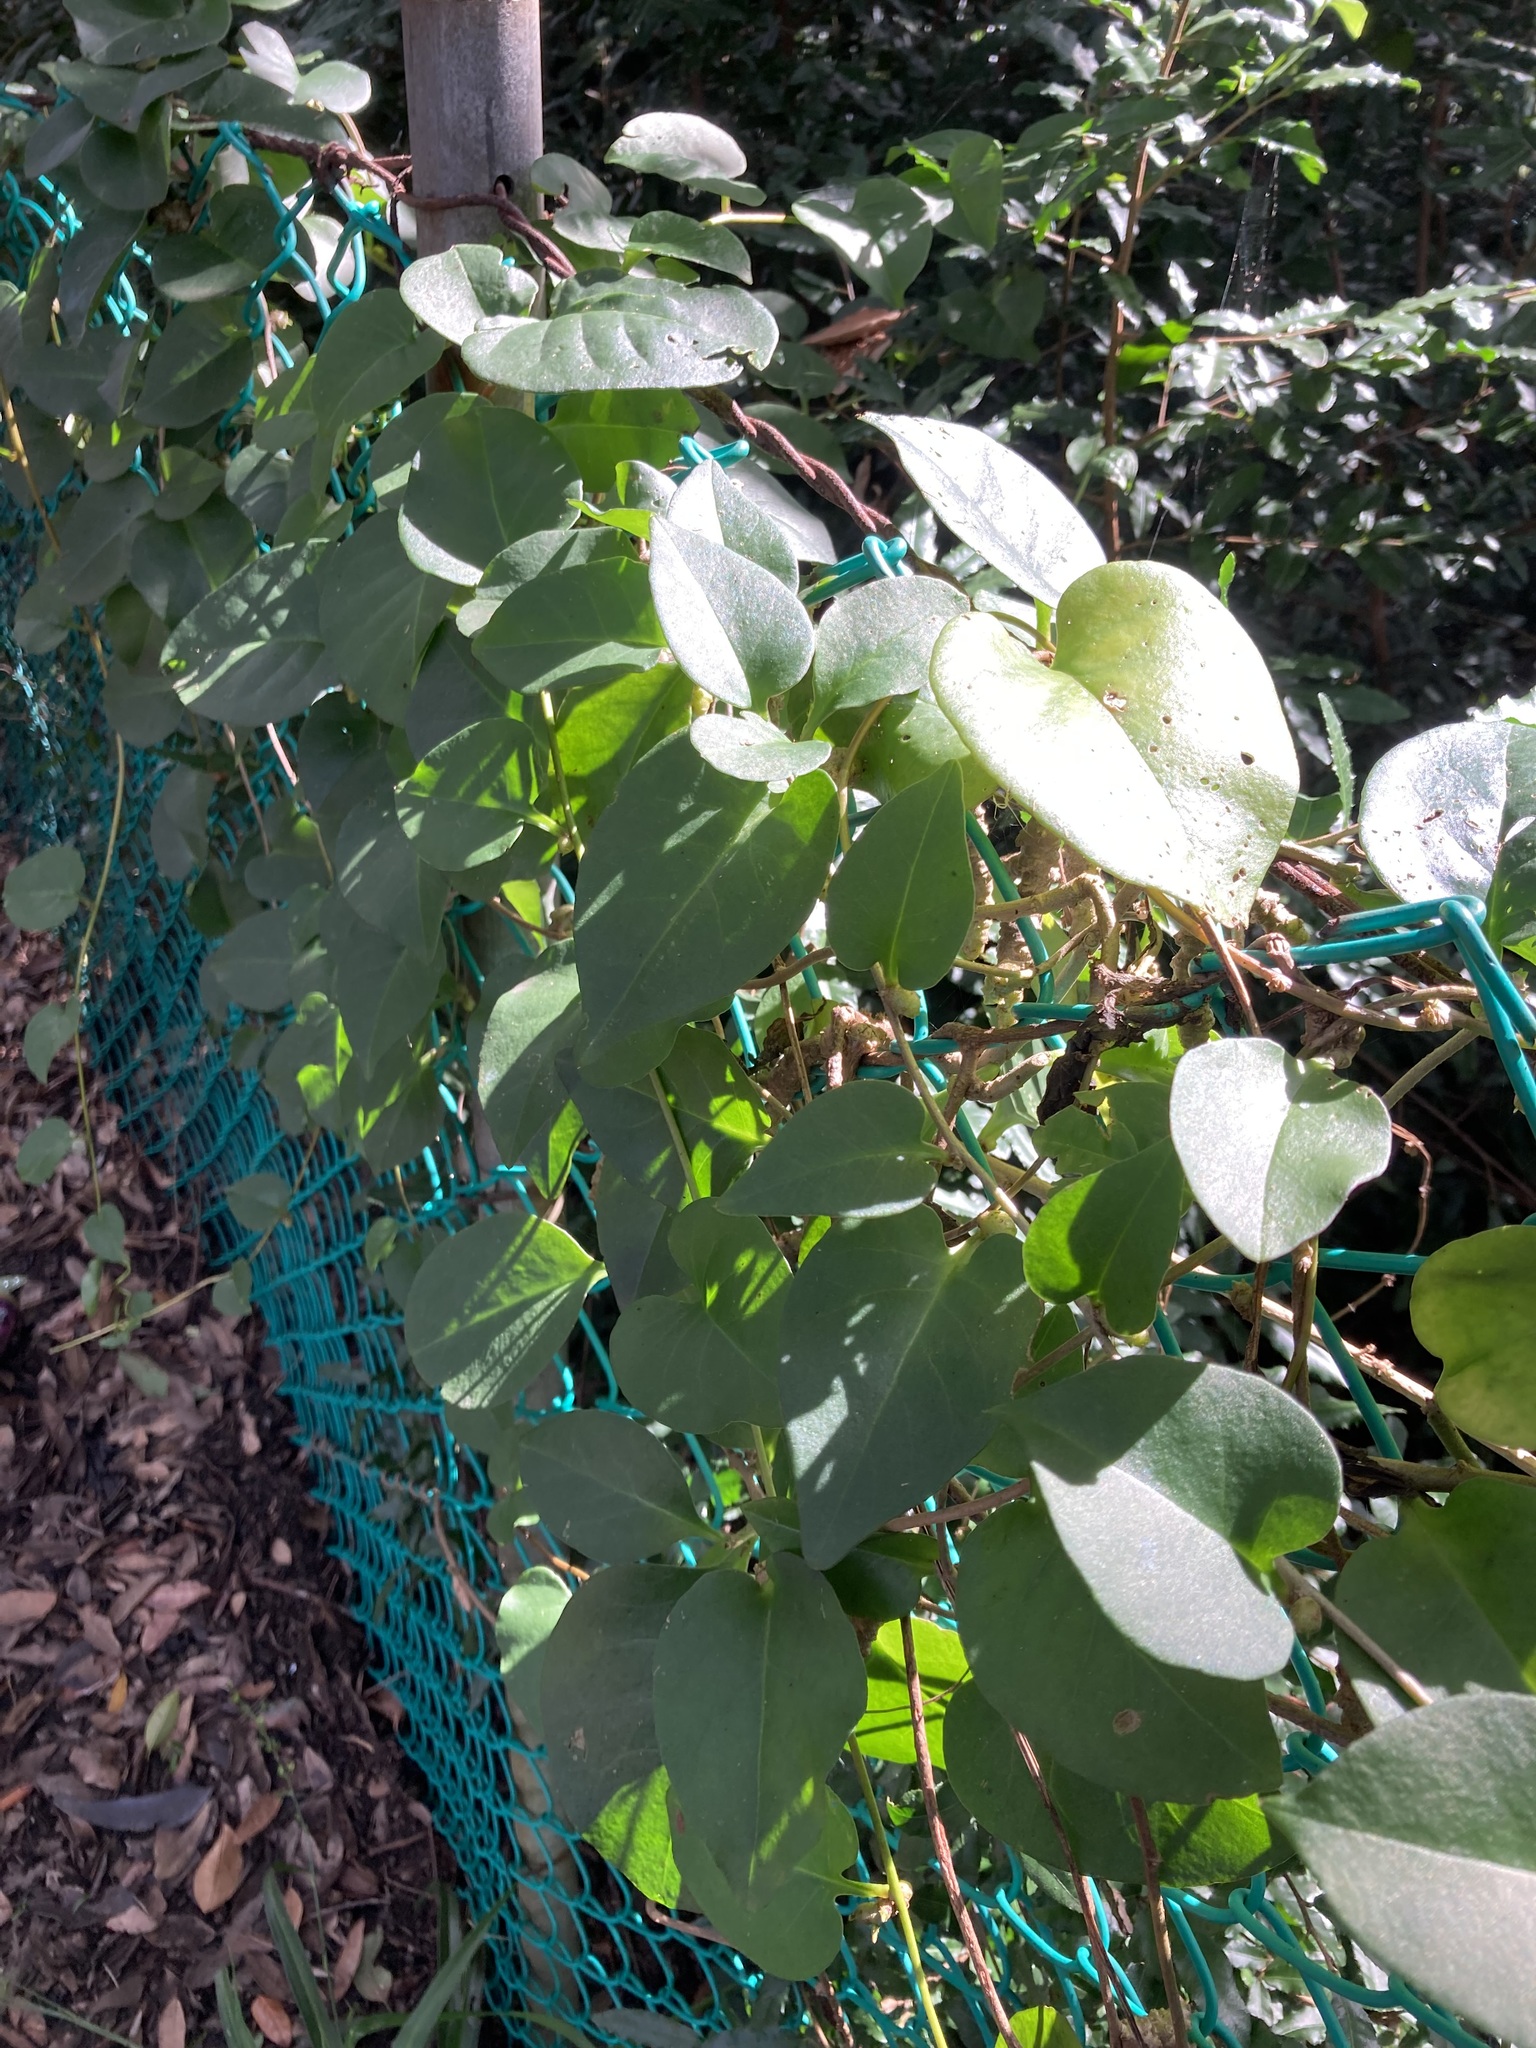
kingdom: Plantae
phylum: Tracheophyta
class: Magnoliopsida
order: Caryophyllales
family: Basellaceae
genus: Anredera
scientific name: Anredera cordifolia
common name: Heartleaf madeiravine
